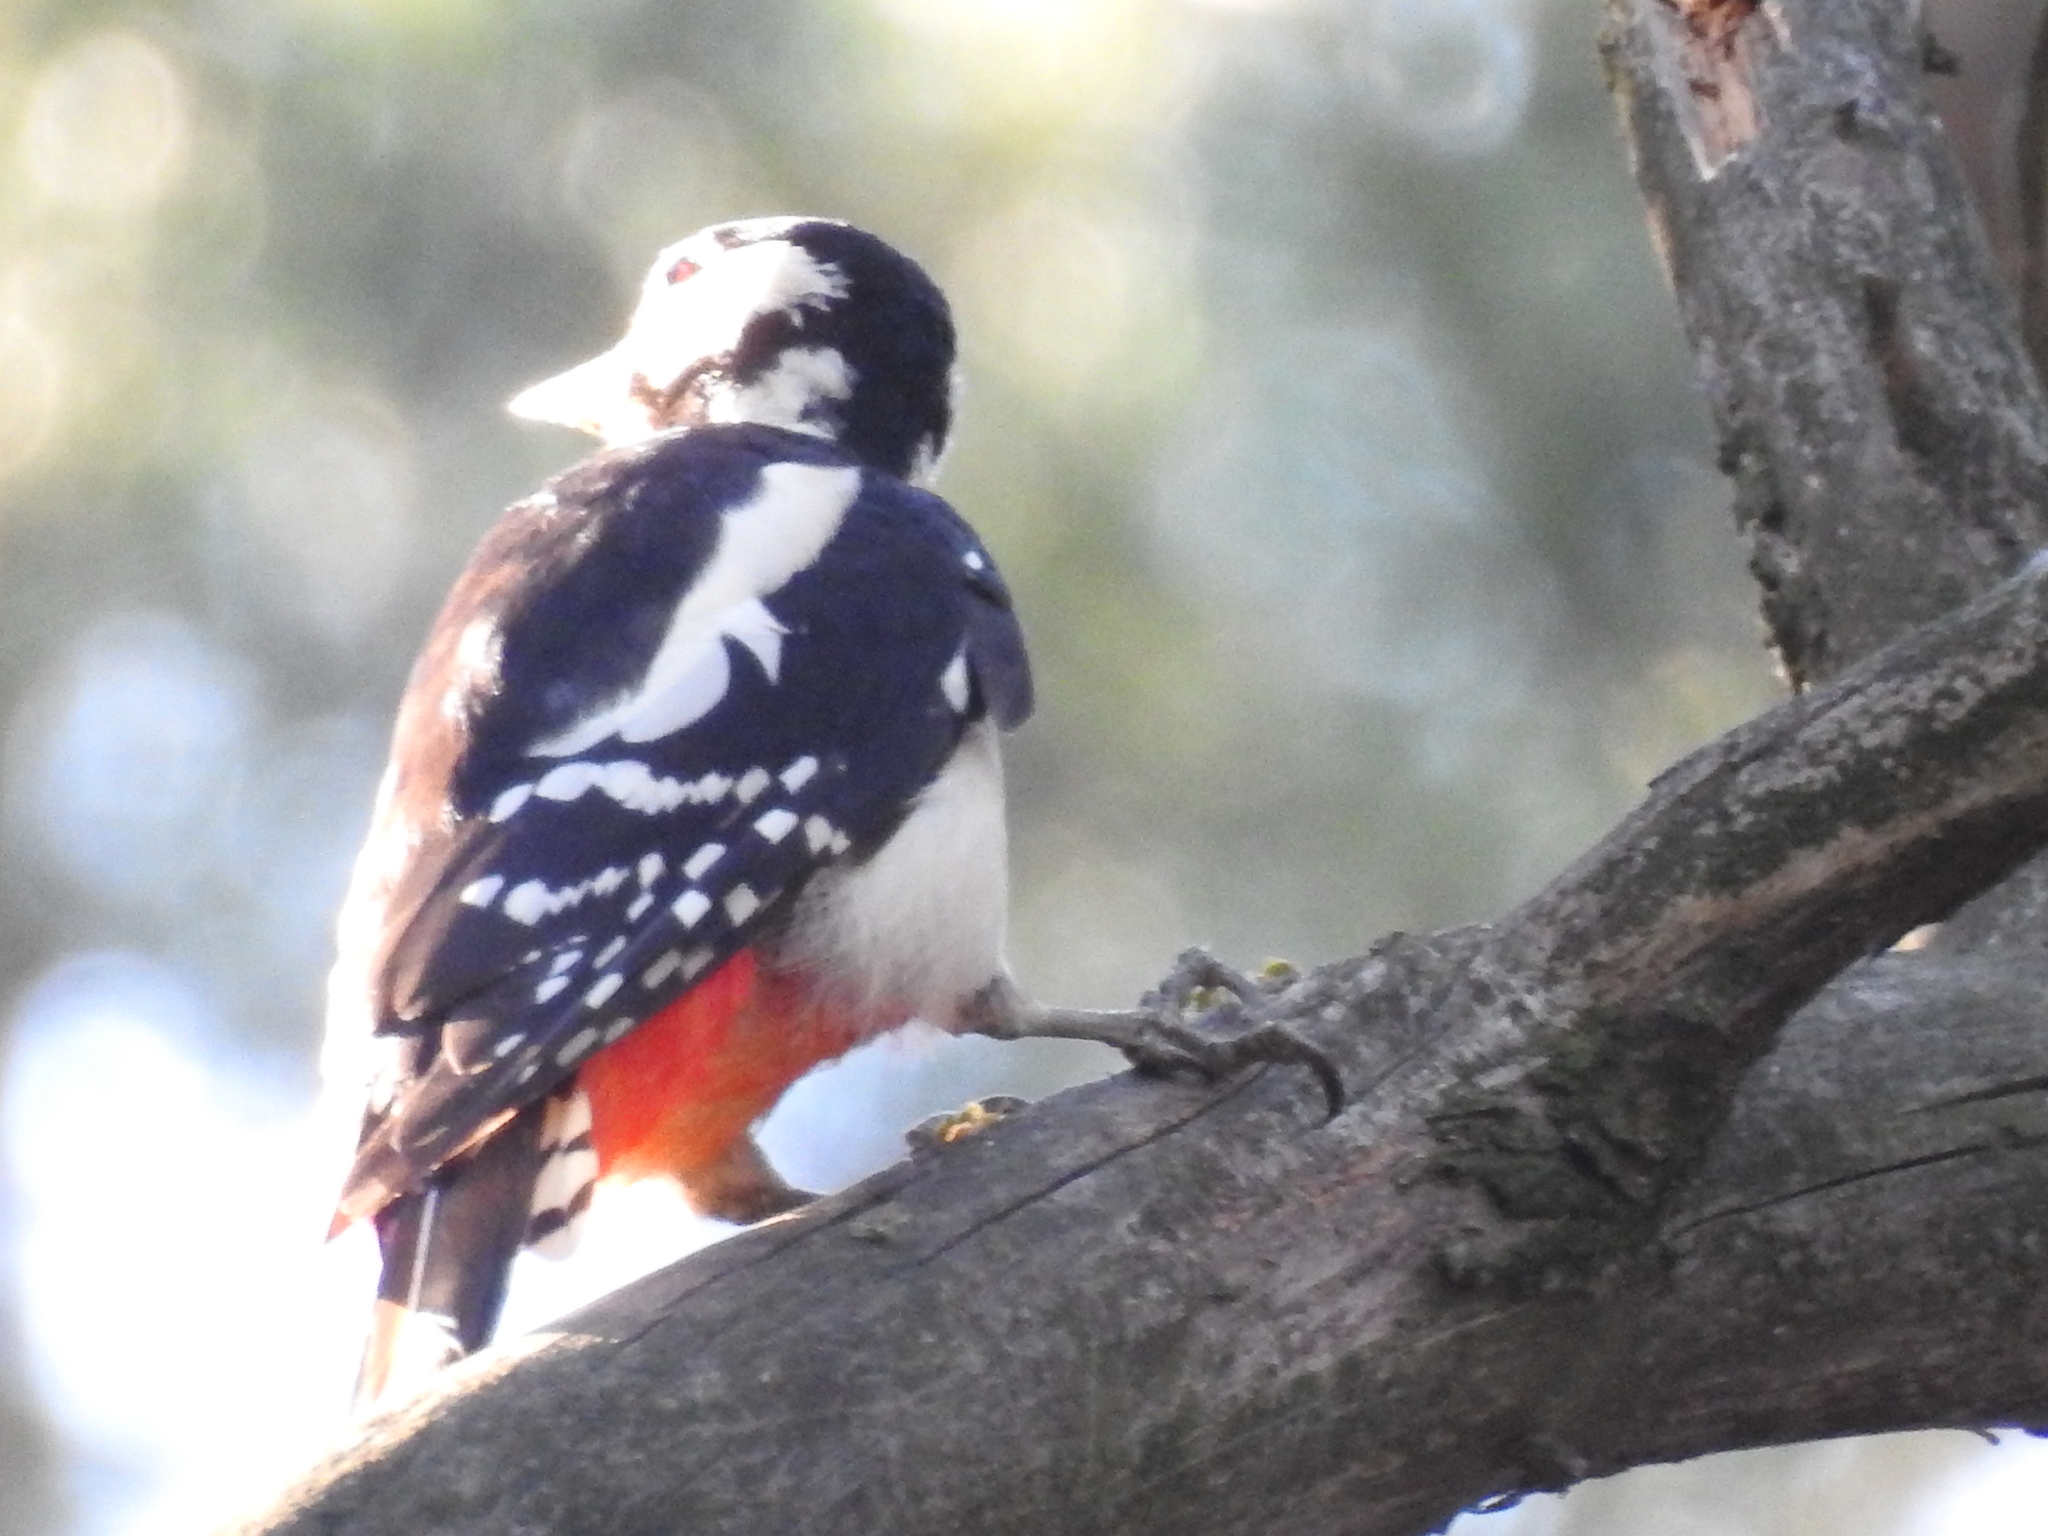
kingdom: Animalia
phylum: Chordata
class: Aves
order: Piciformes
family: Picidae
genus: Dendrocopos
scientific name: Dendrocopos major
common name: Great spotted woodpecker
